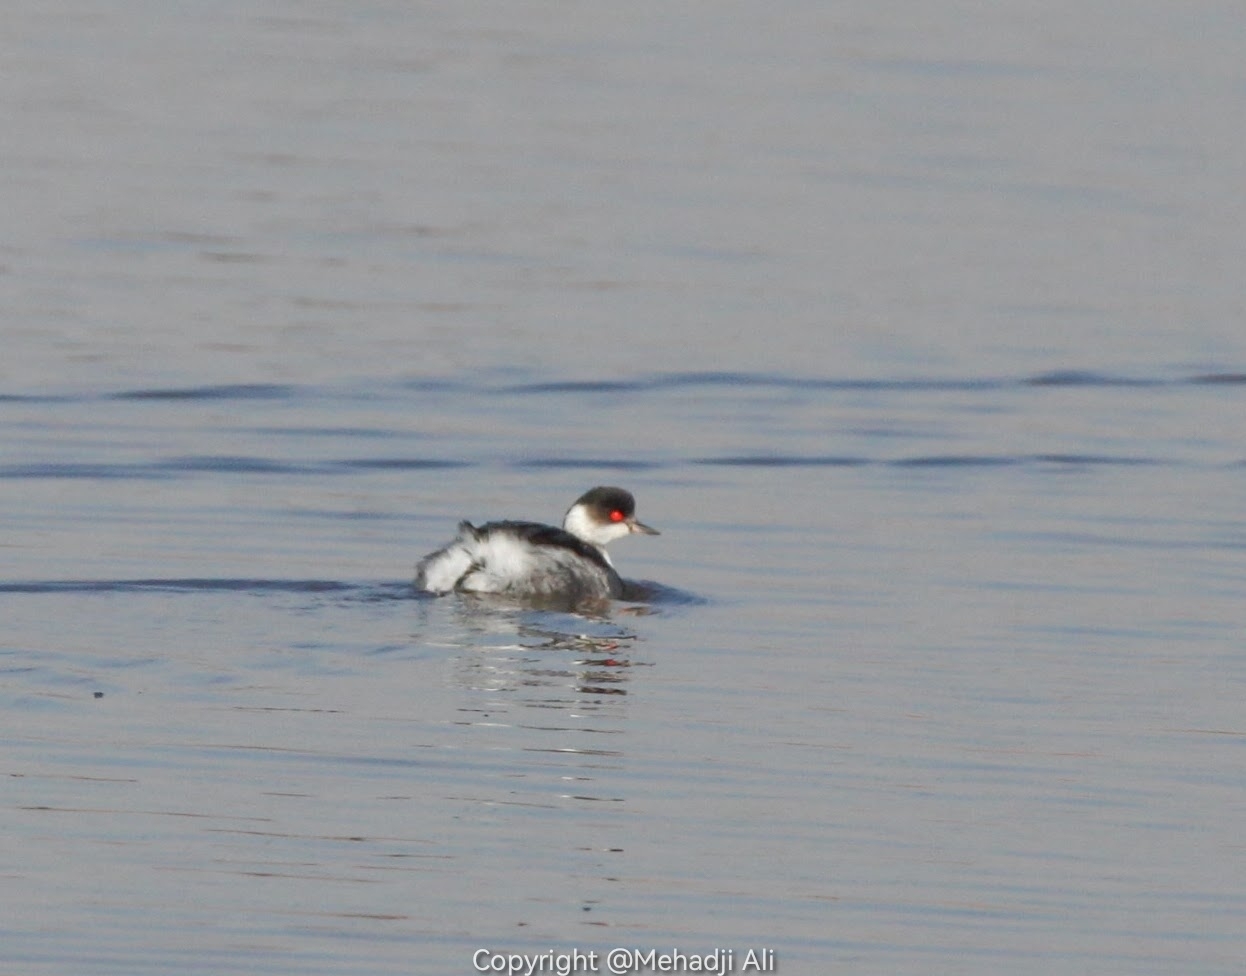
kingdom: Animalia
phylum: Chordata
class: Aves
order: Podicipediformes
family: Podicipedidae
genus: Podiceps
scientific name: Podiceps nigricollis
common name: Black-necked grebe
